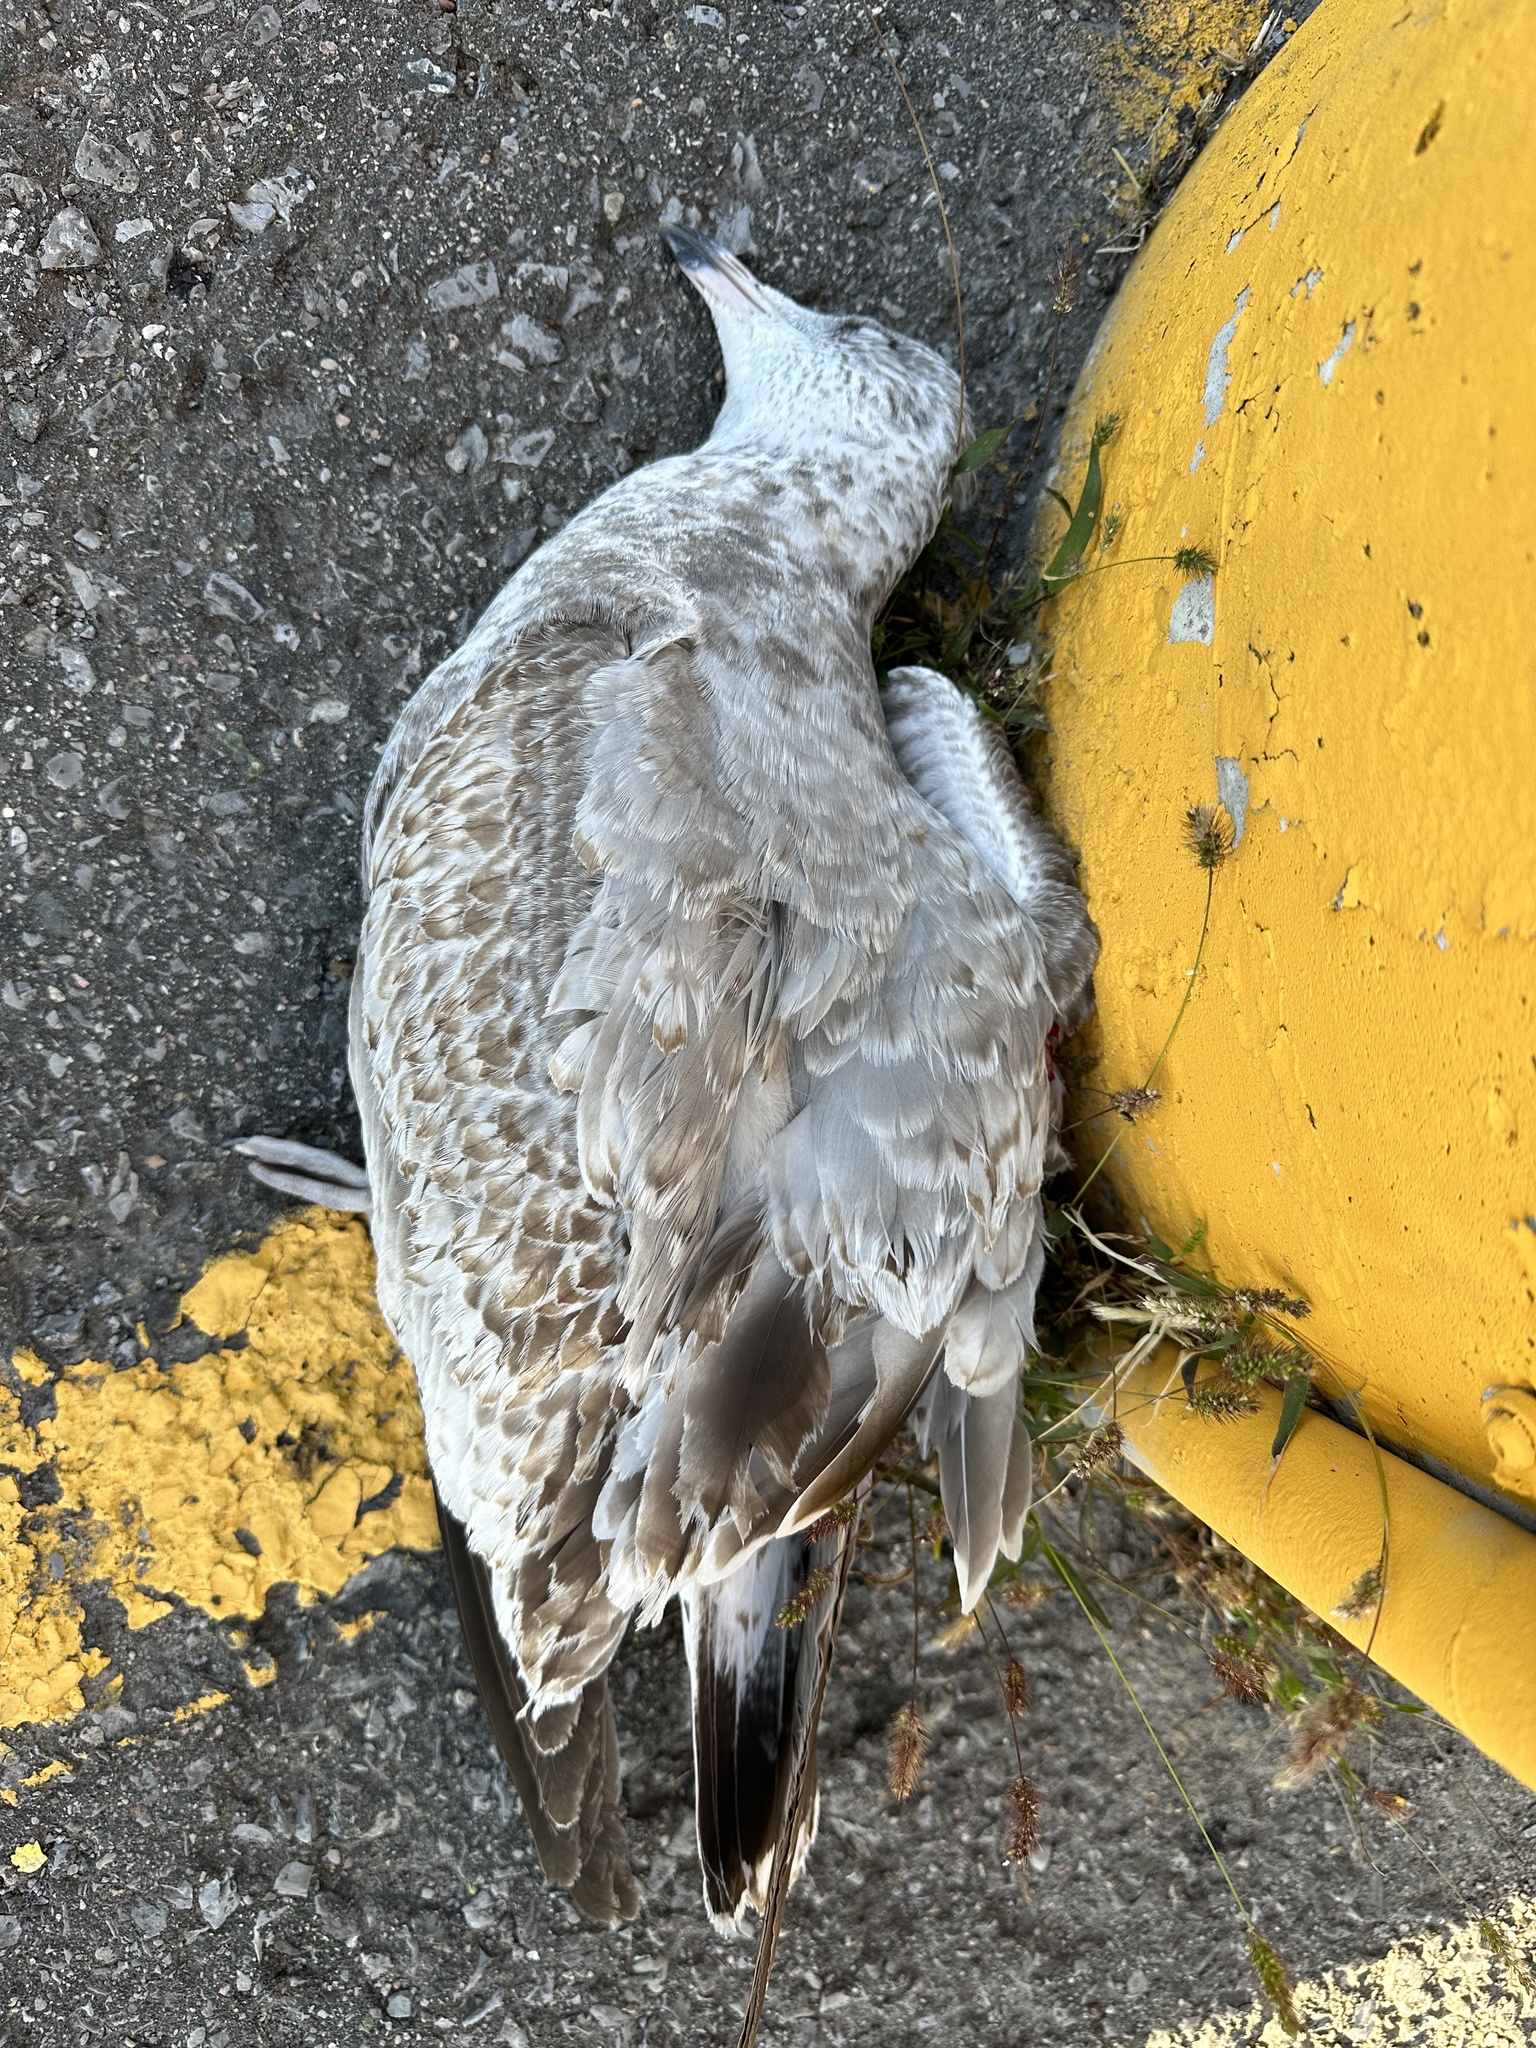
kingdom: Animalia
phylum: Chordata
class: Aves
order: Charadriiformes
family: Laridae
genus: Larus
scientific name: Larus delawarensis
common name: Ring-billed gull
